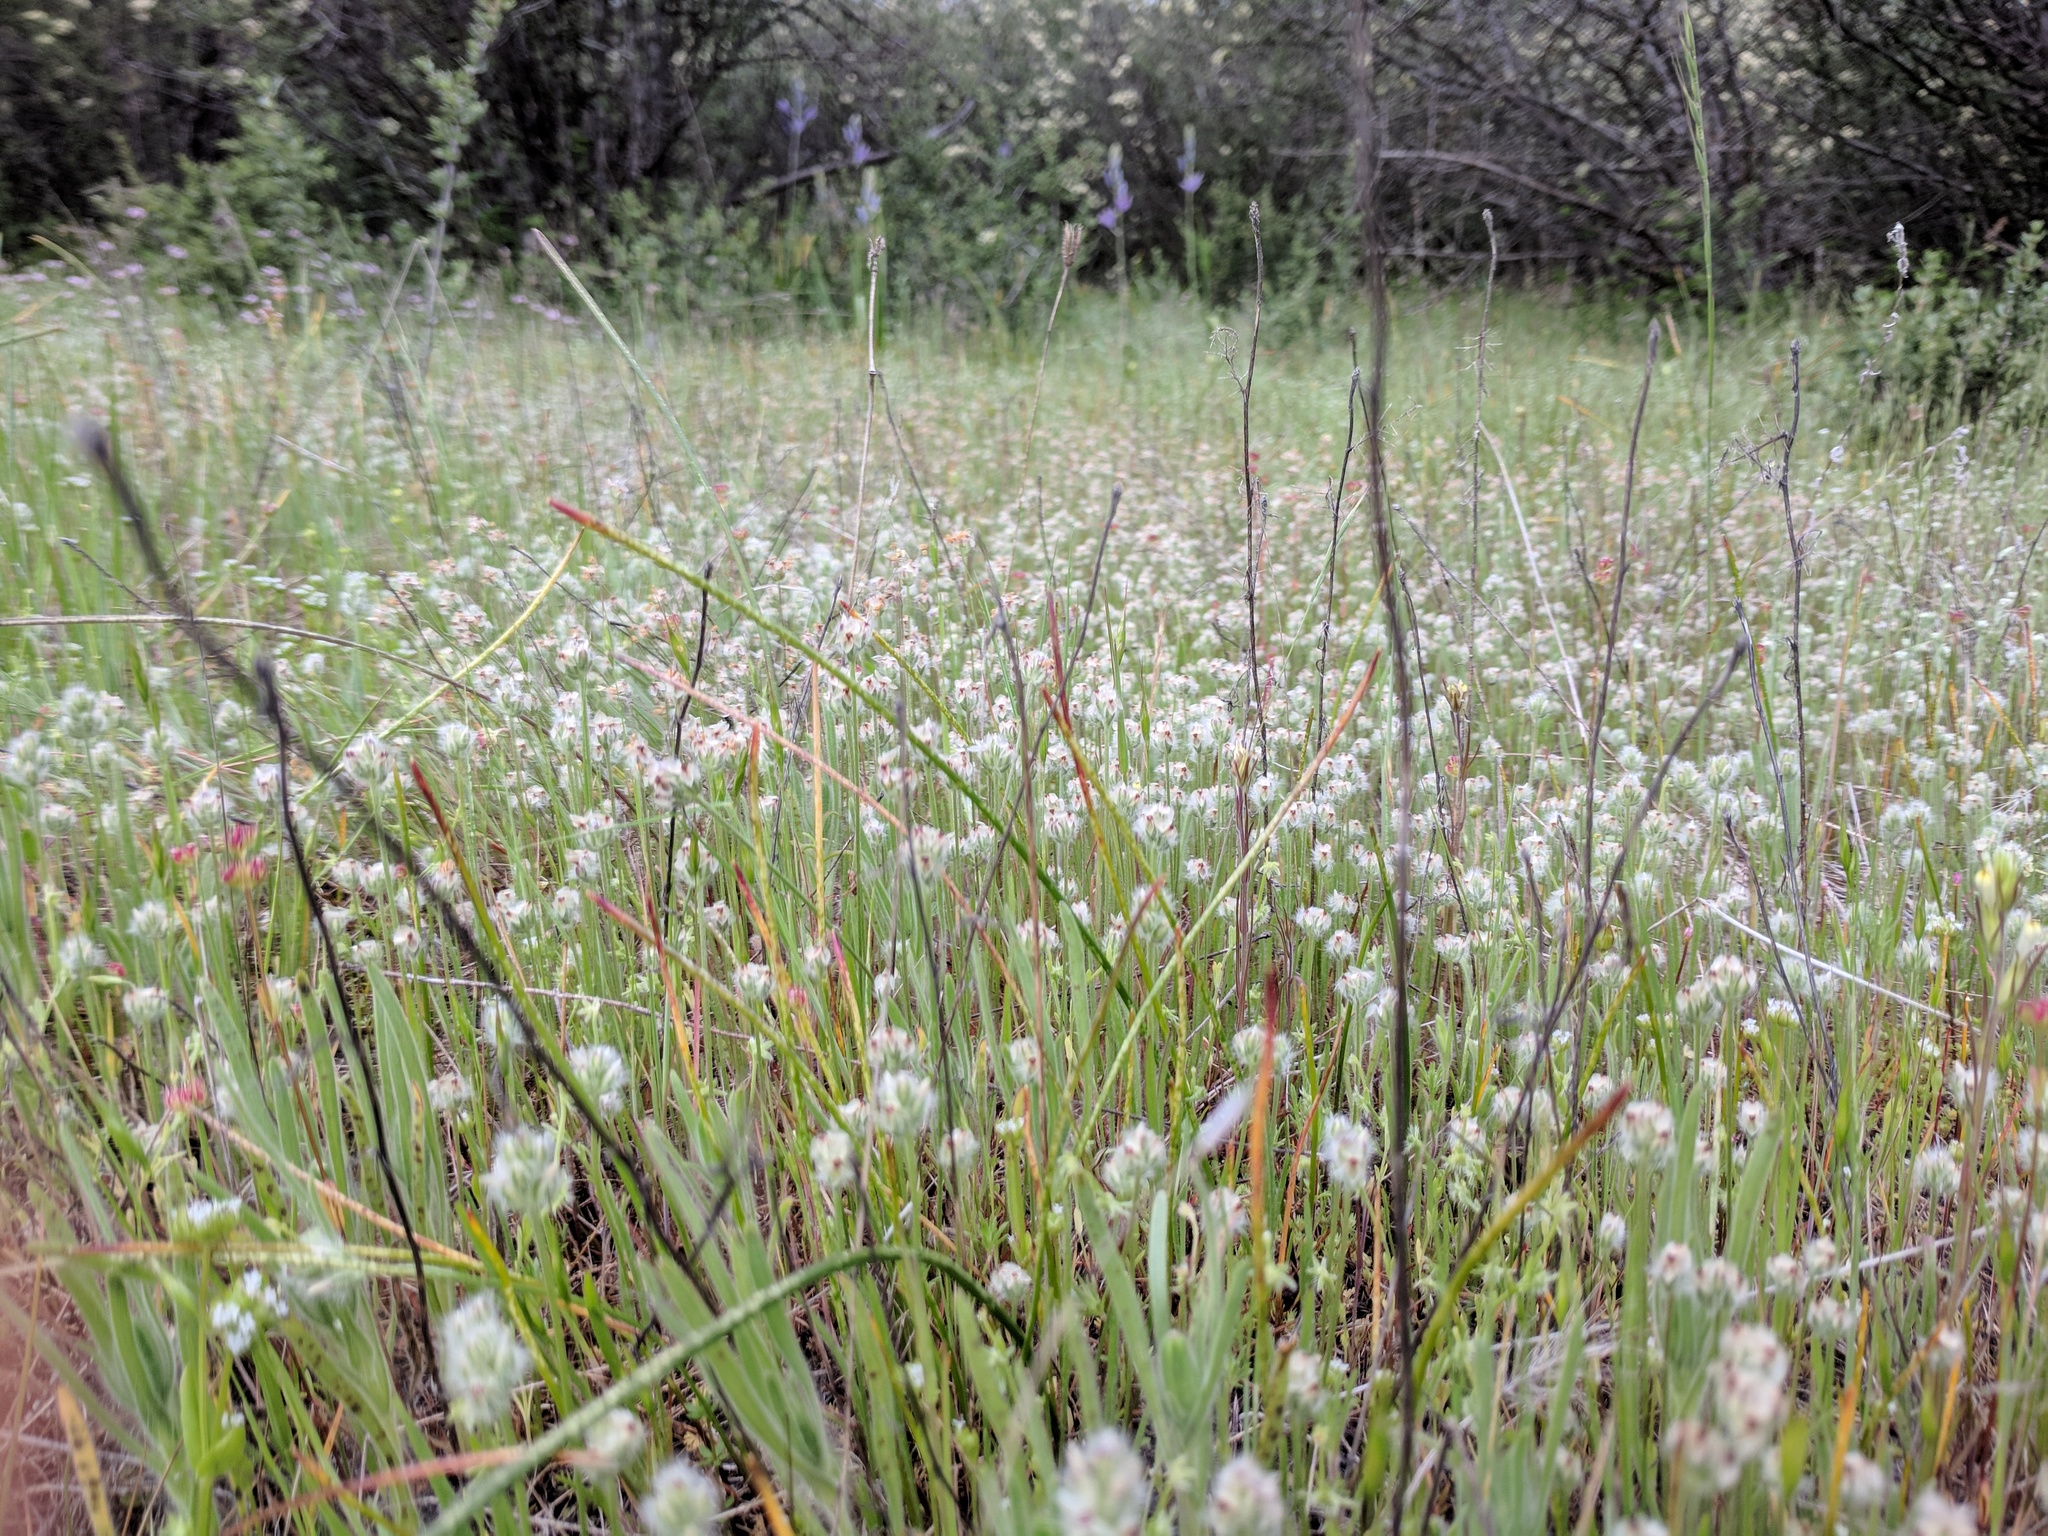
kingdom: Plantae
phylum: Tracheophyta
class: Magnoliopsida
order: Lamiales
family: Plantaginaceae
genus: Plantago
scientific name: Plantago erecta
